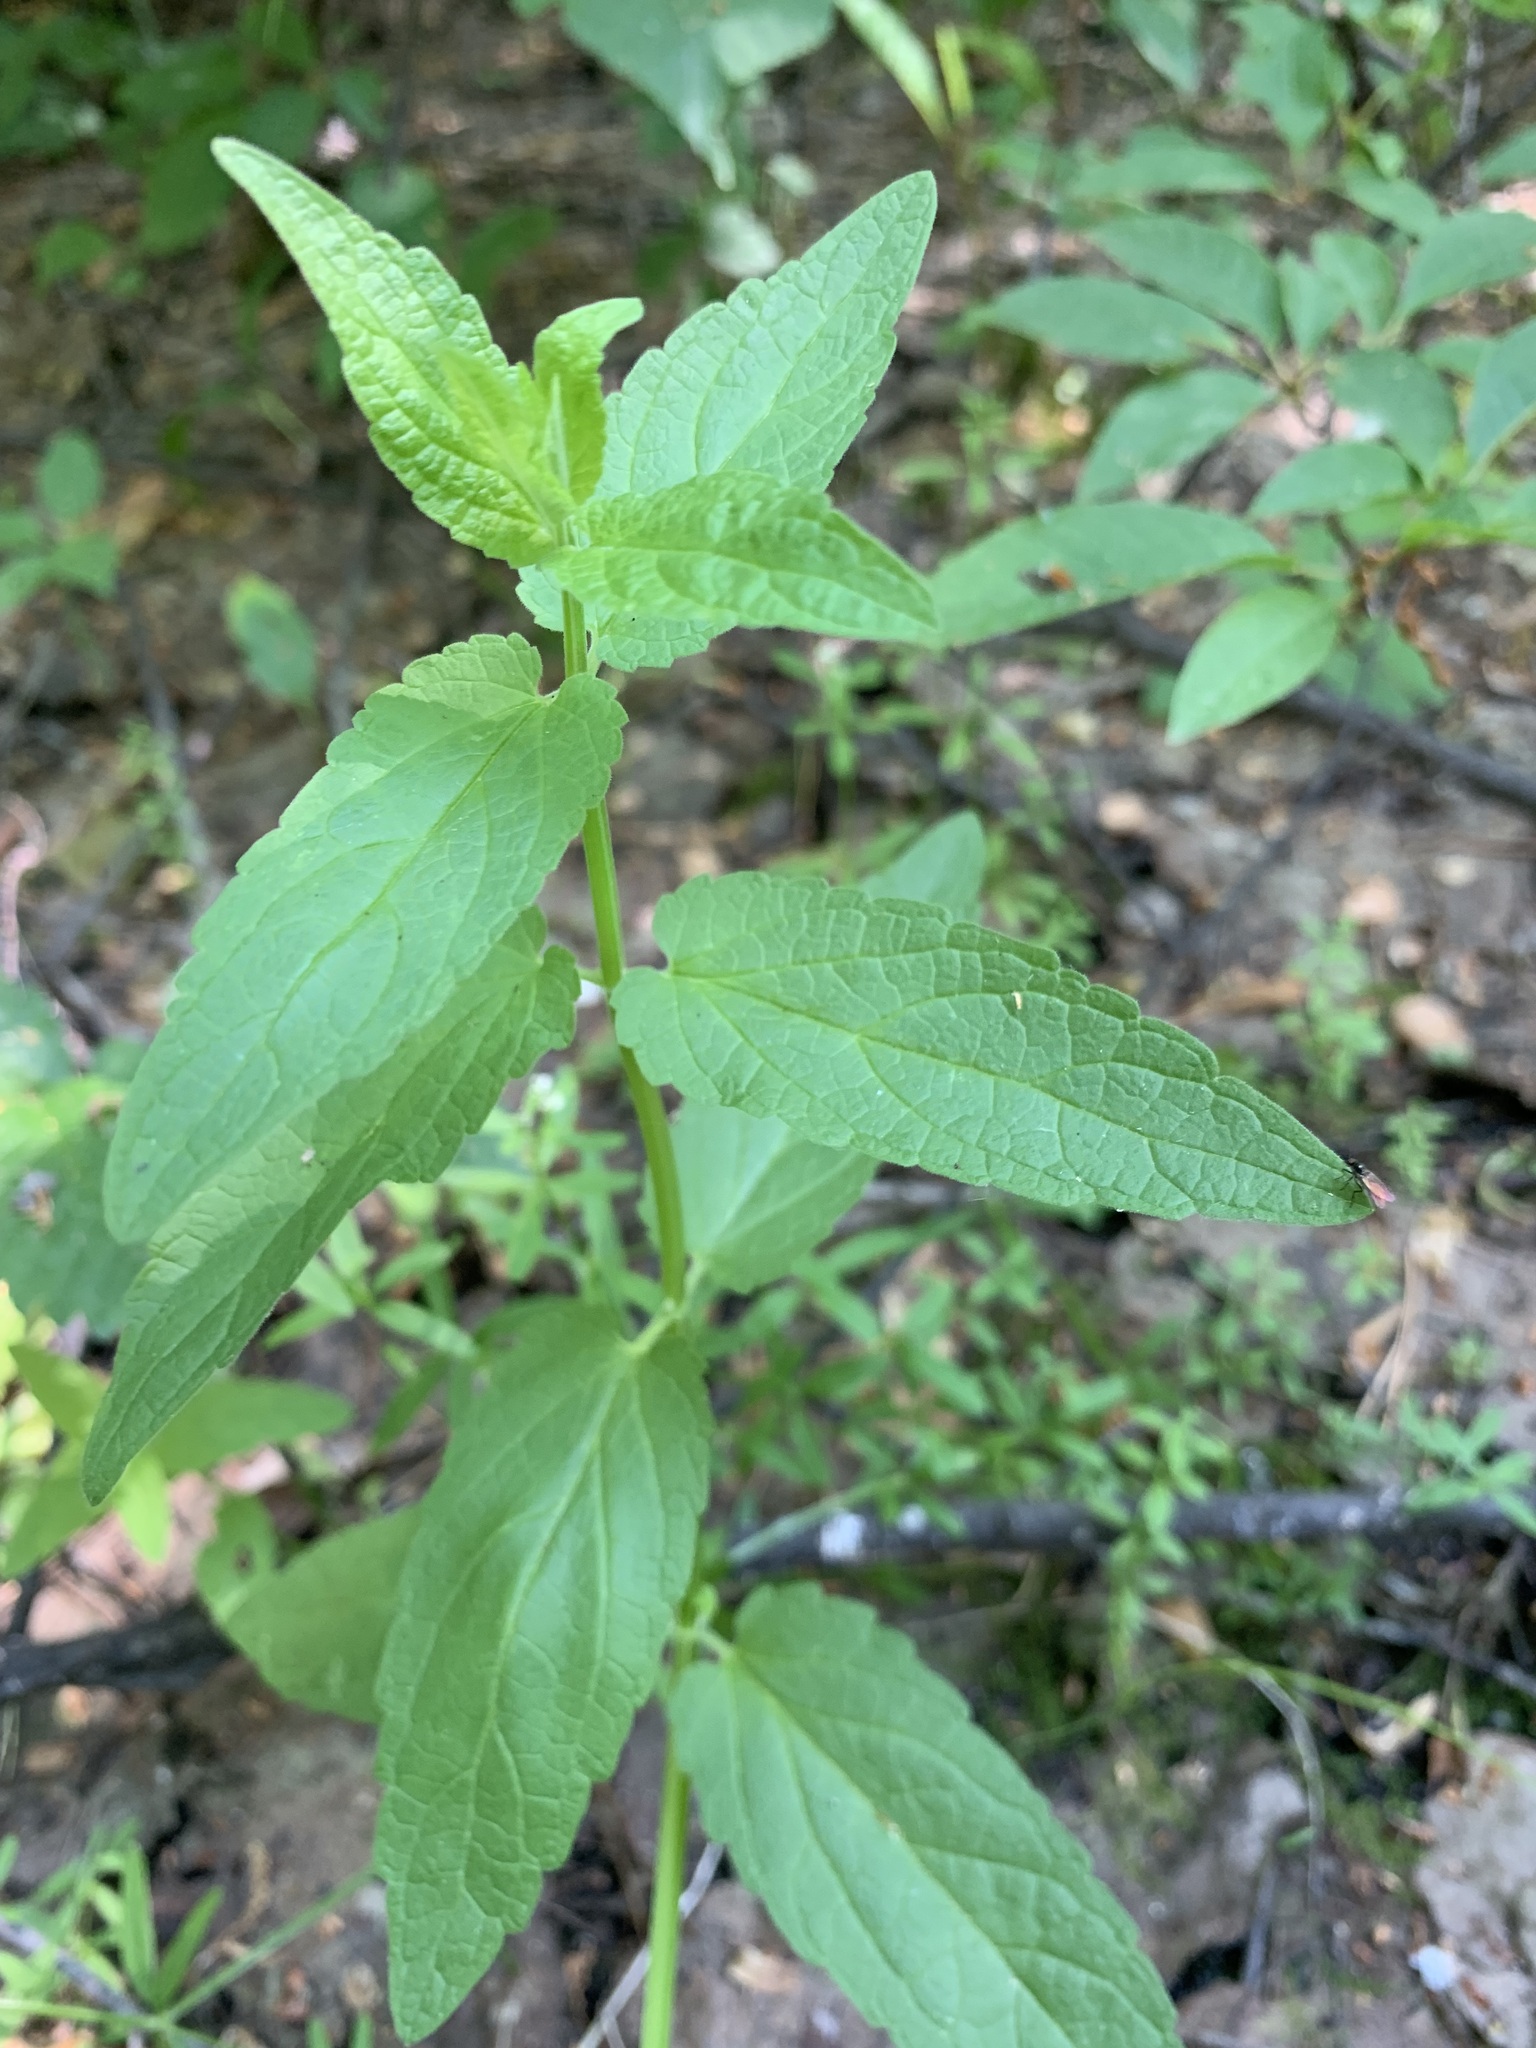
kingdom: Plantae
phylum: Tracheophyta
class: Magnoliopsida
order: Lamiales
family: Lamiaceae
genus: Scutellaria
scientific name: Scutellaria galericulata
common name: Skullcap
